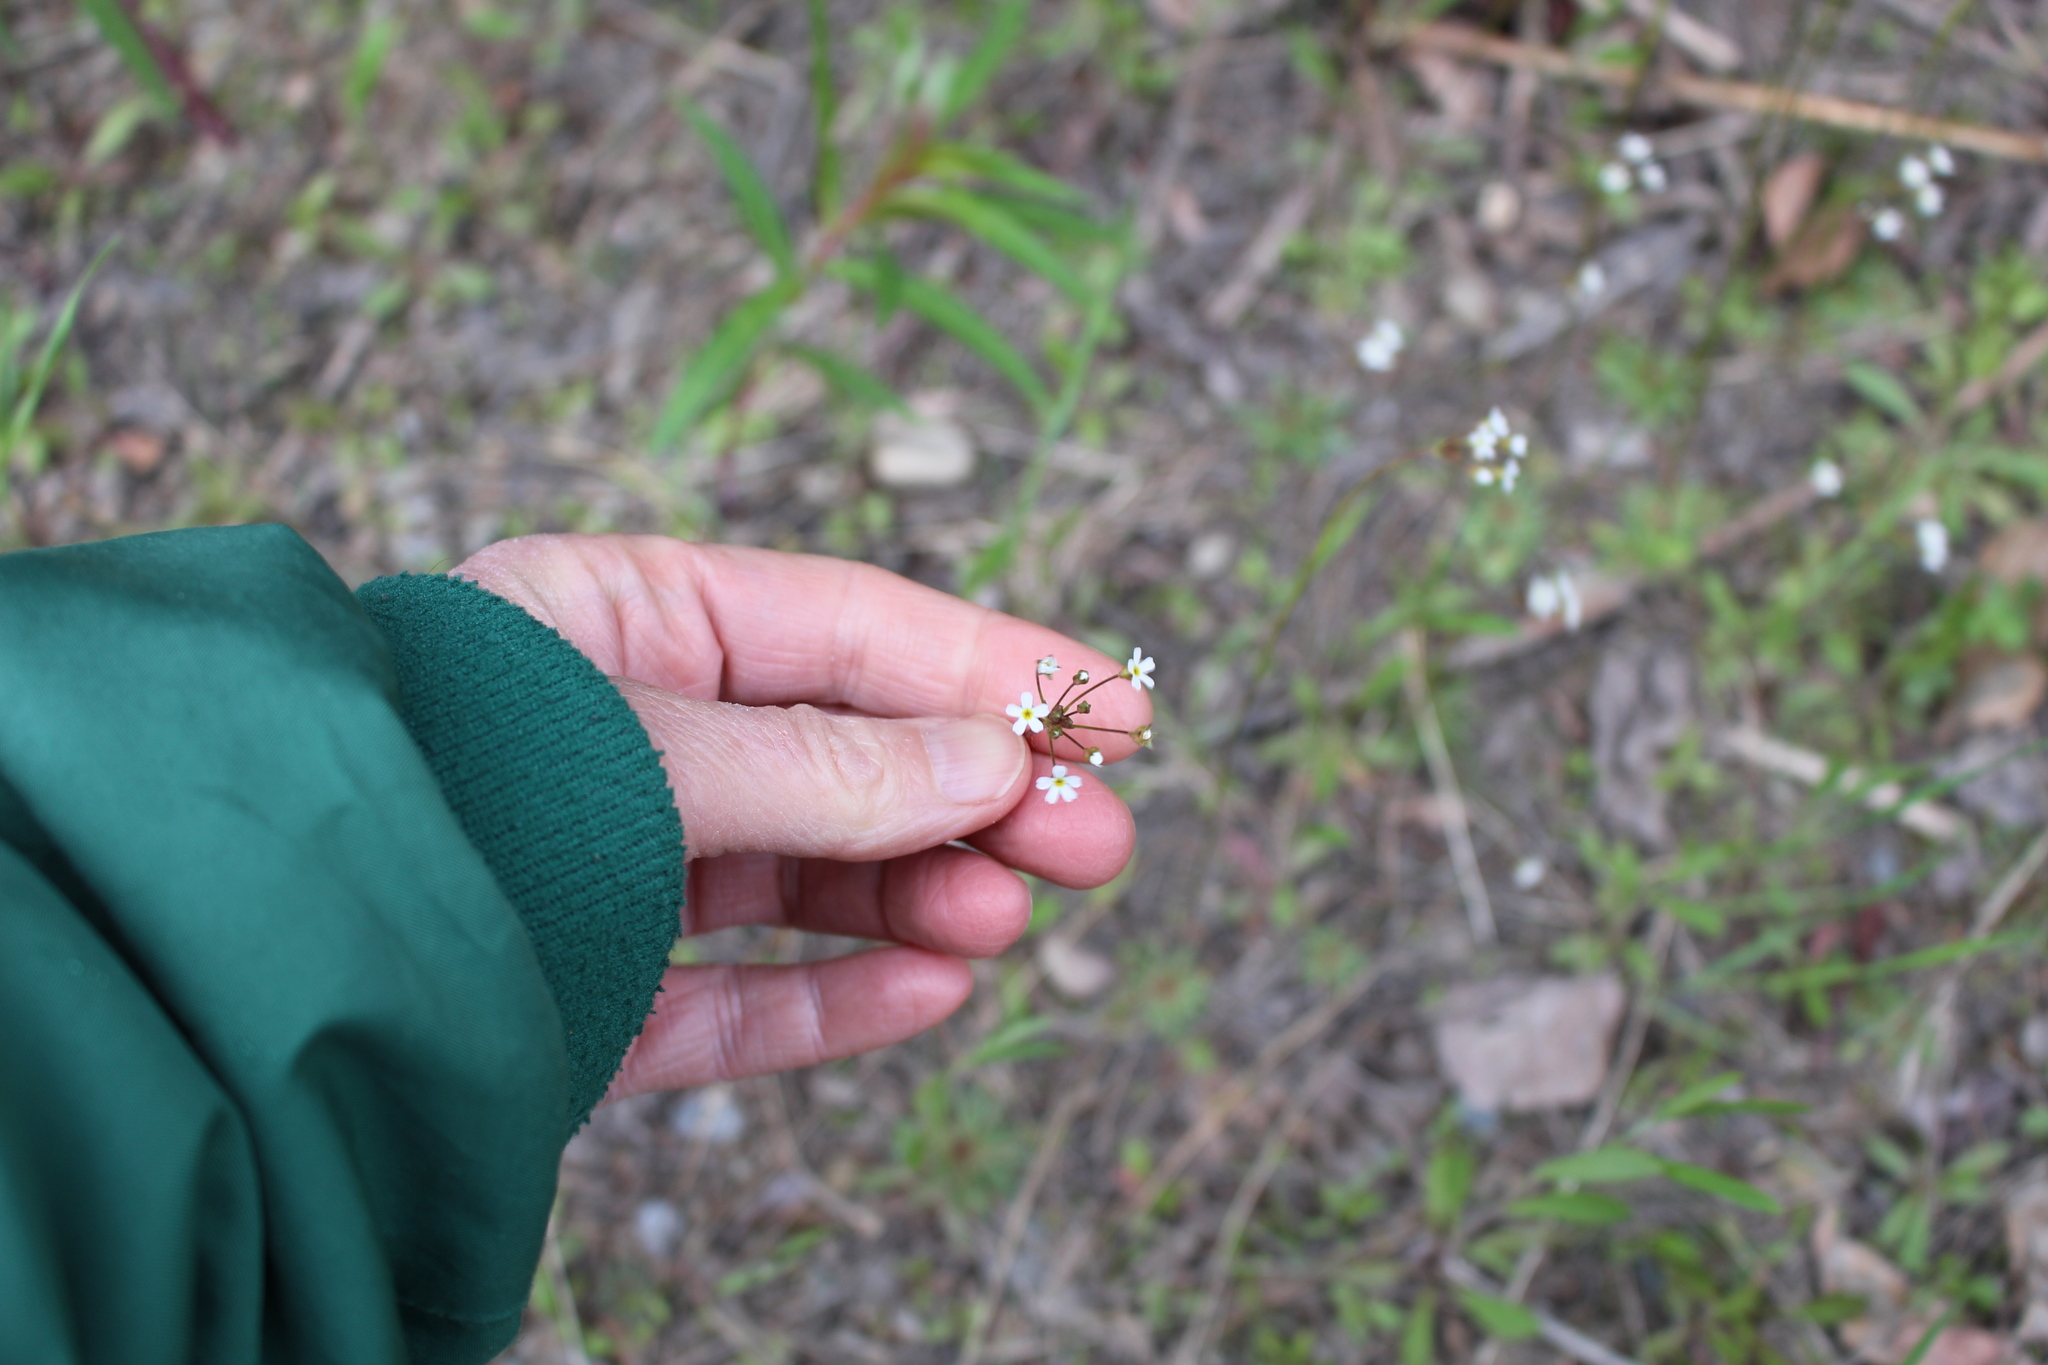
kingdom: Plantae
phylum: Tracheophyta
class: Magnoliopsida
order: Ericales
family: Primulaceae
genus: Androsace
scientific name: Androsace septentrionalis
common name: Hairy northern fairy-candelabra
